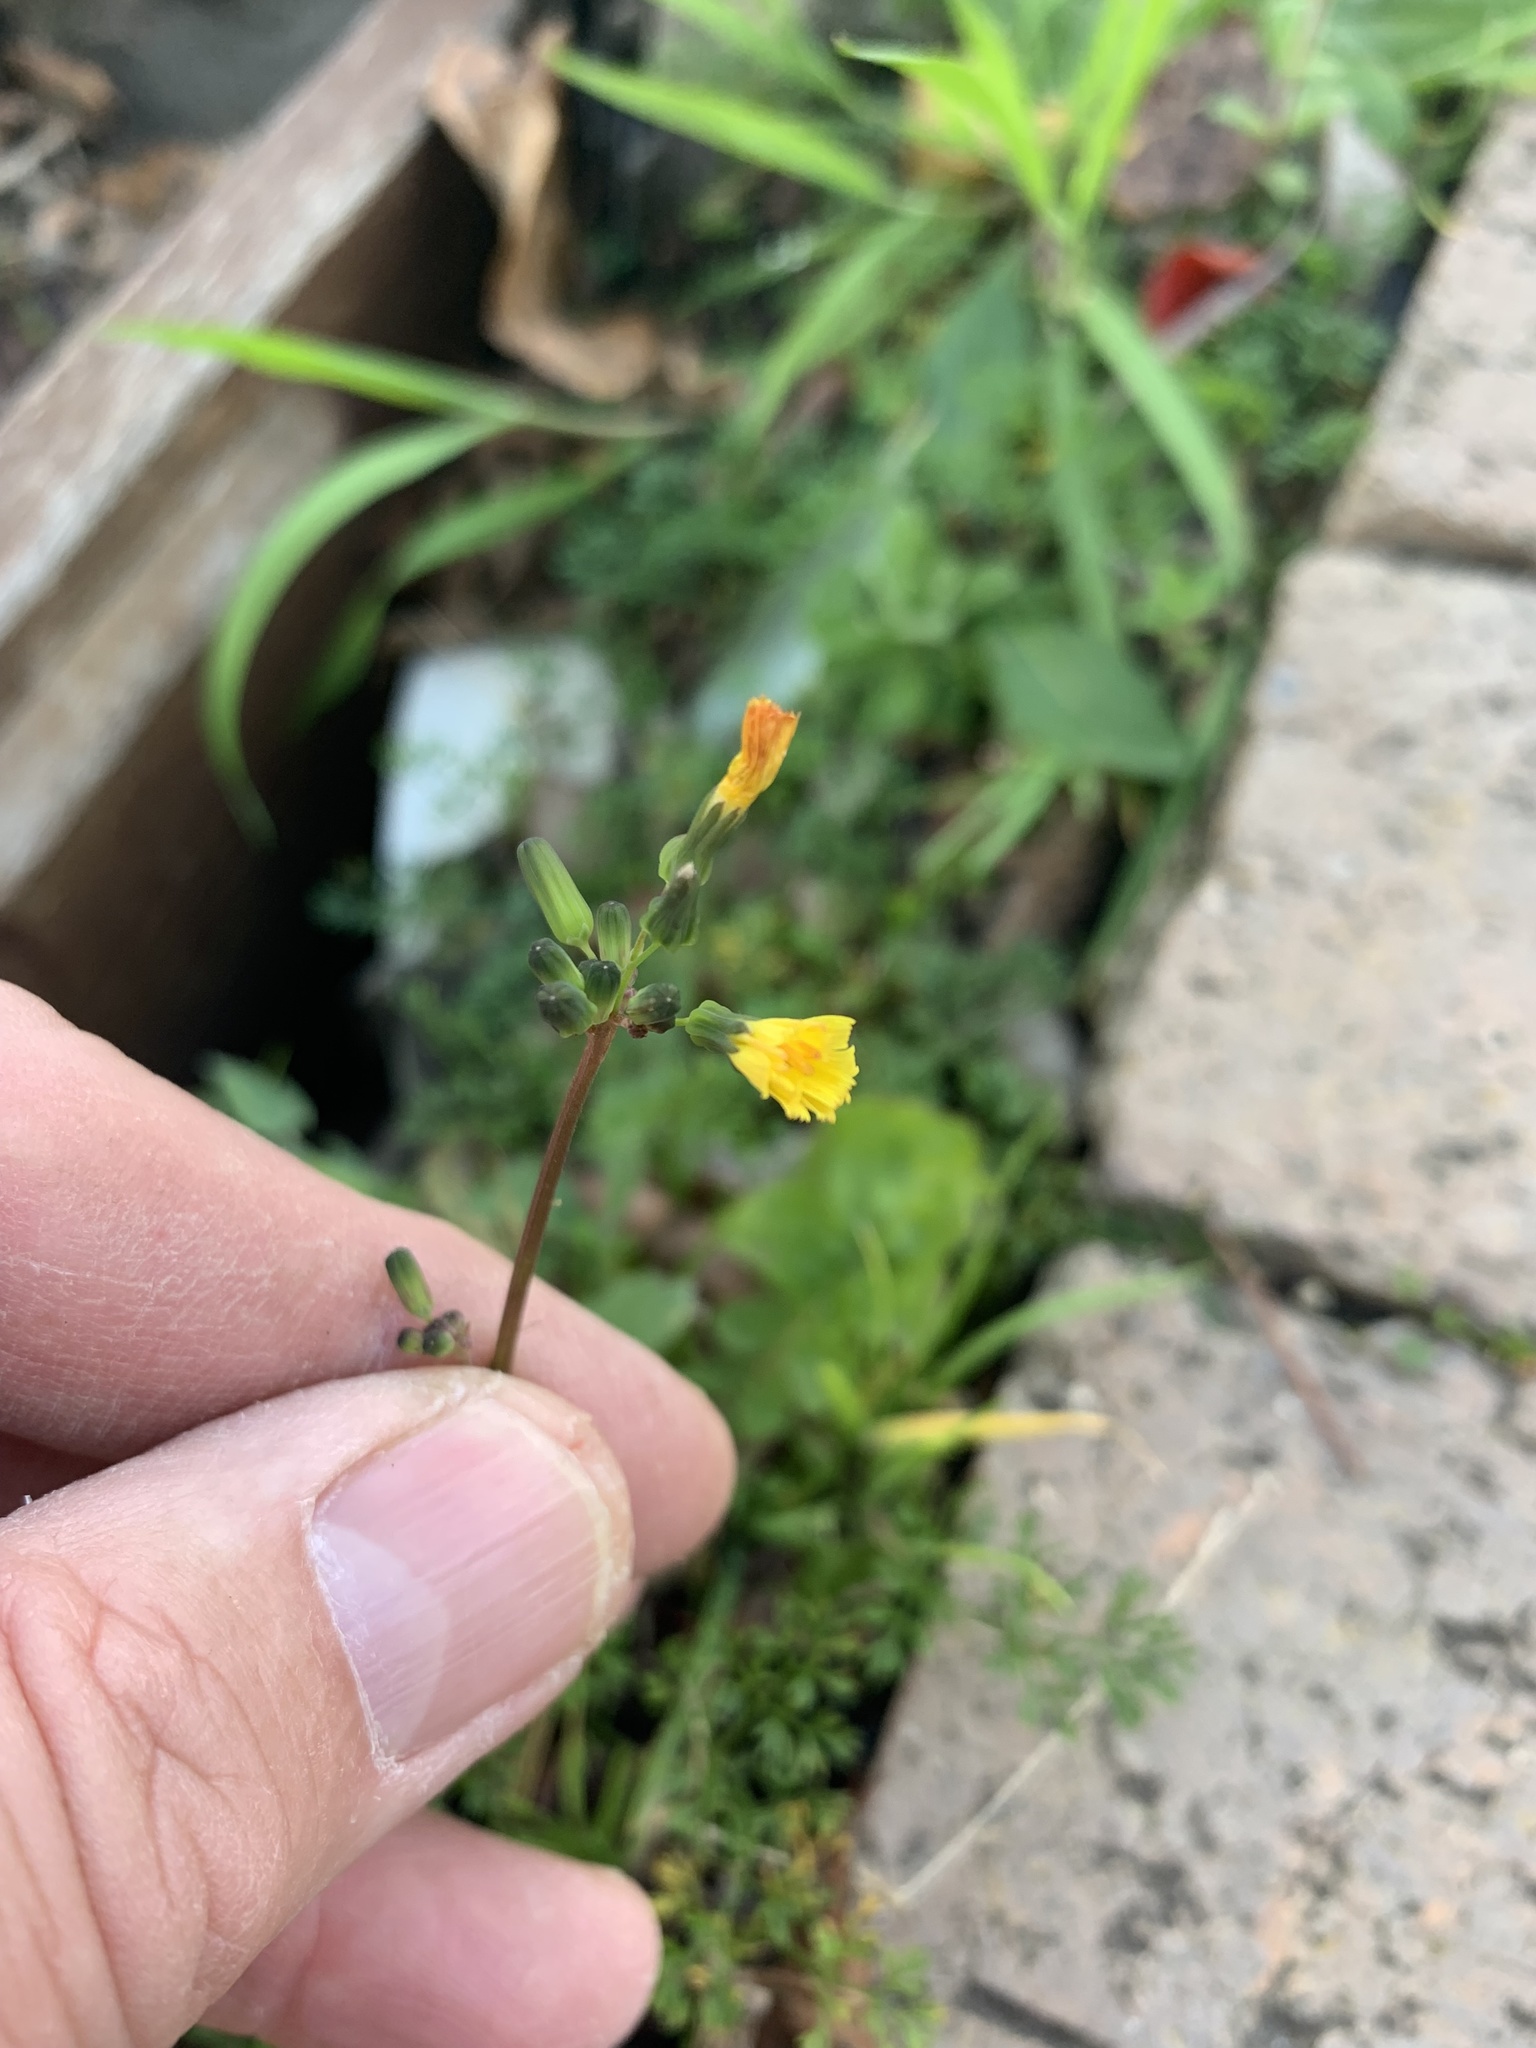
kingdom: Plantae
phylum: Tracheophyta
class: Magnoliopsida
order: Asterales
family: Asteraceae
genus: Youngia
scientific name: Youngia japonica
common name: Oriental false hawksbeard
